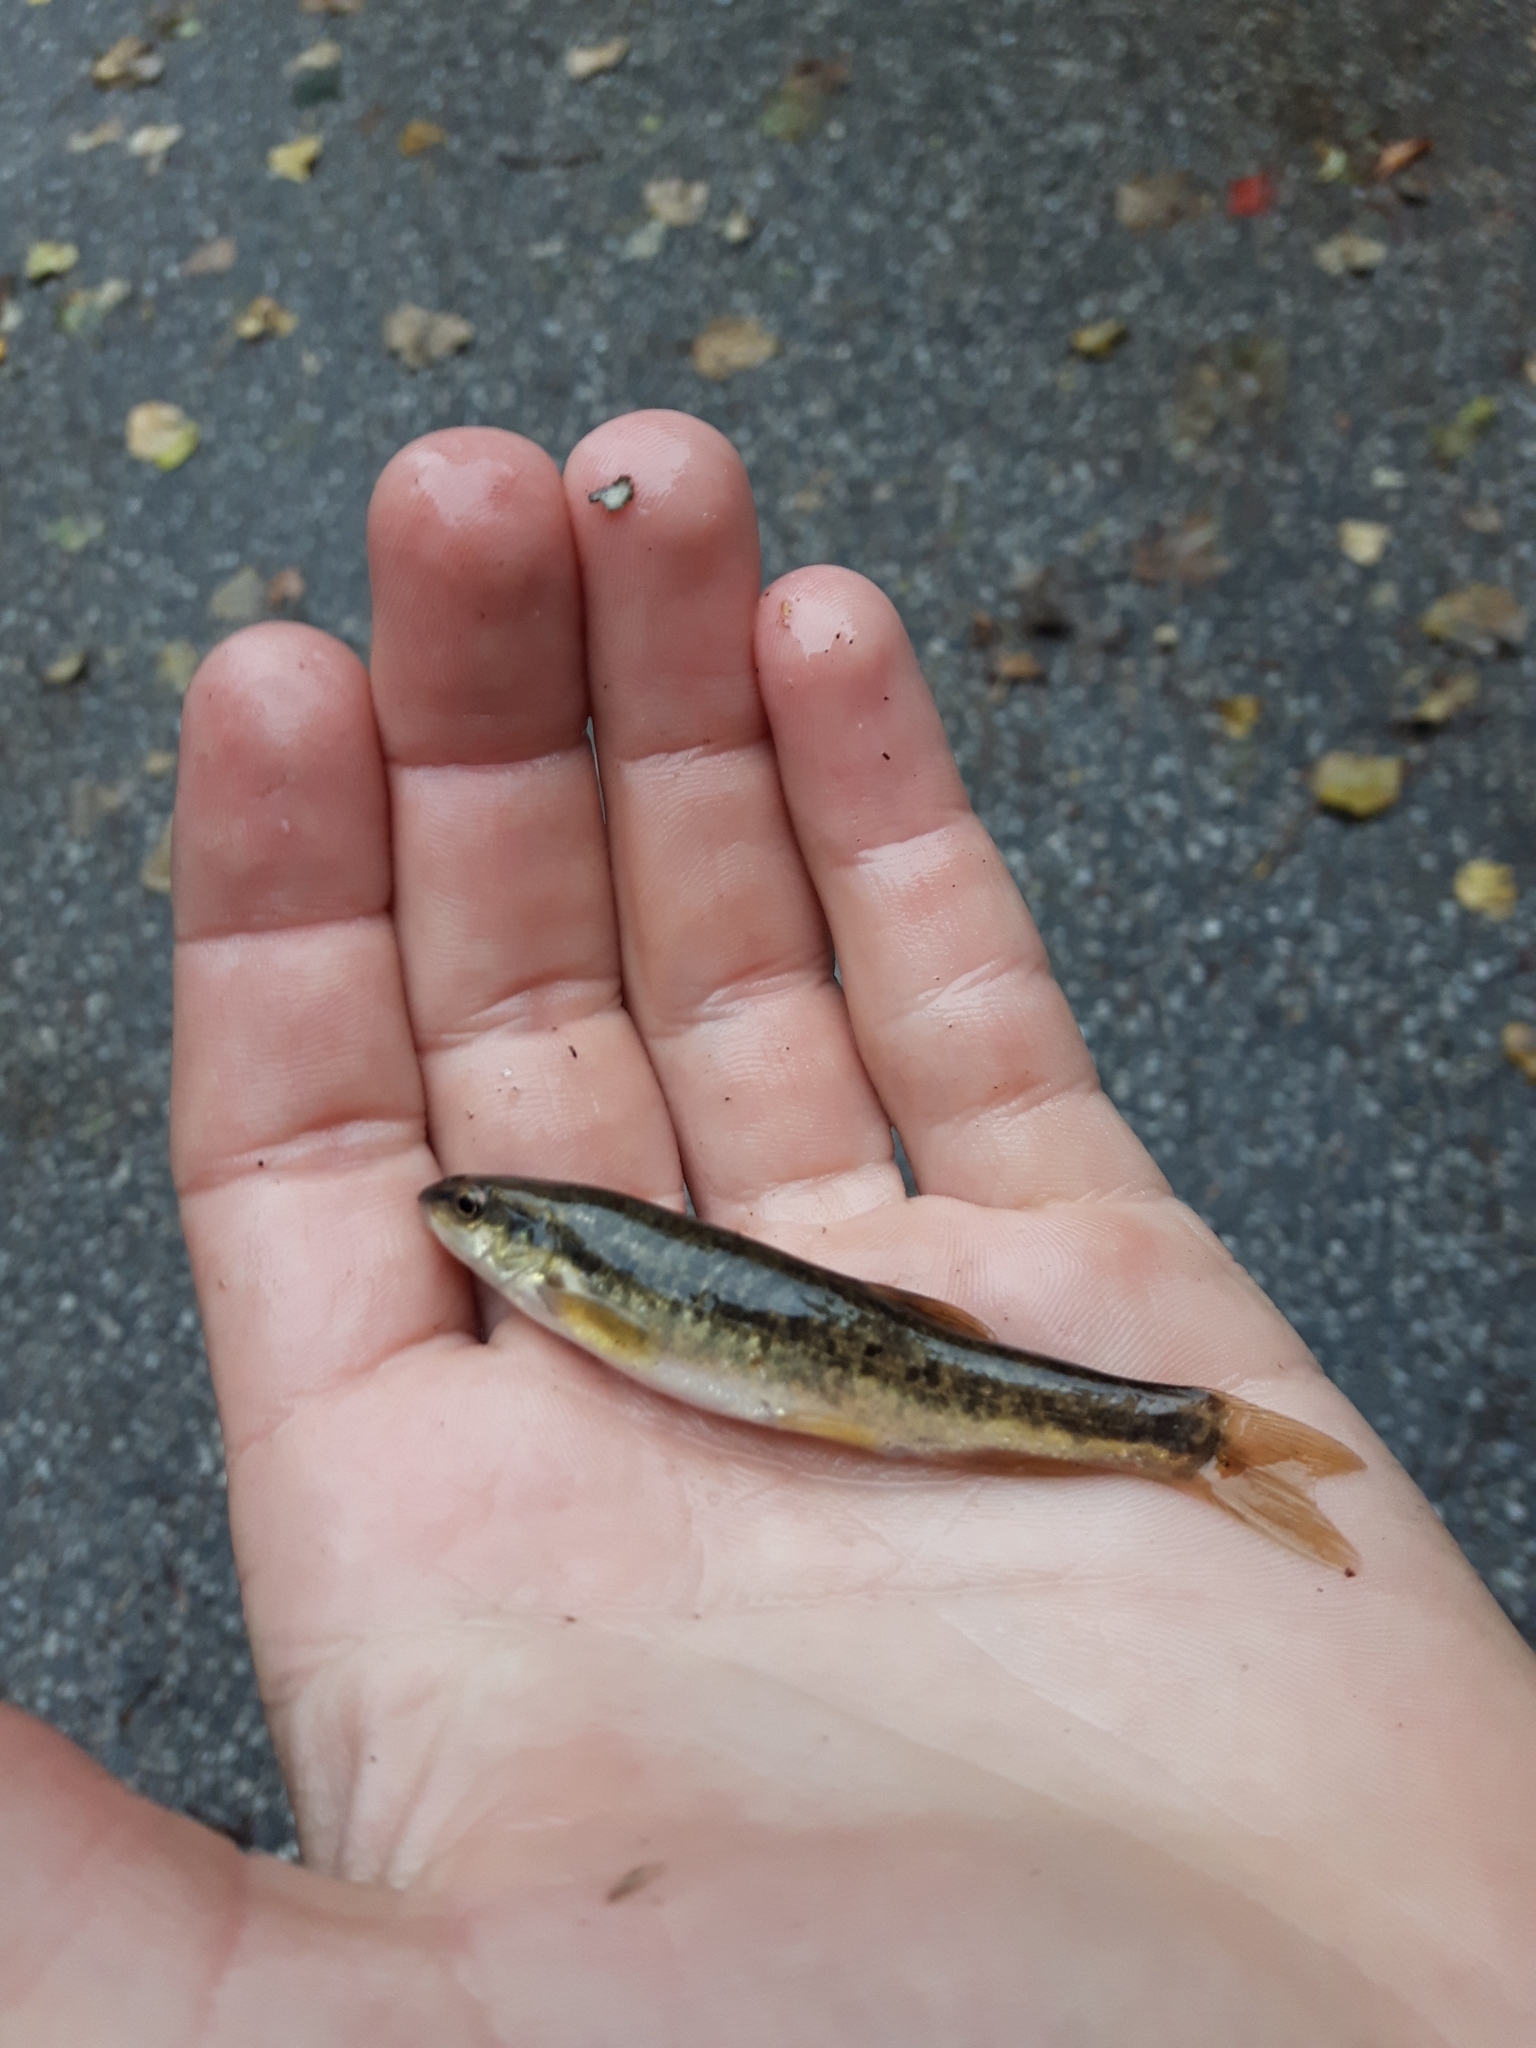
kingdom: Animalia
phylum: Chordata
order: Cypriniformes
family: Cyprinidae
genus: Rhinichthys
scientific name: Rhinichthys obtusus
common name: Western blacknose dace
